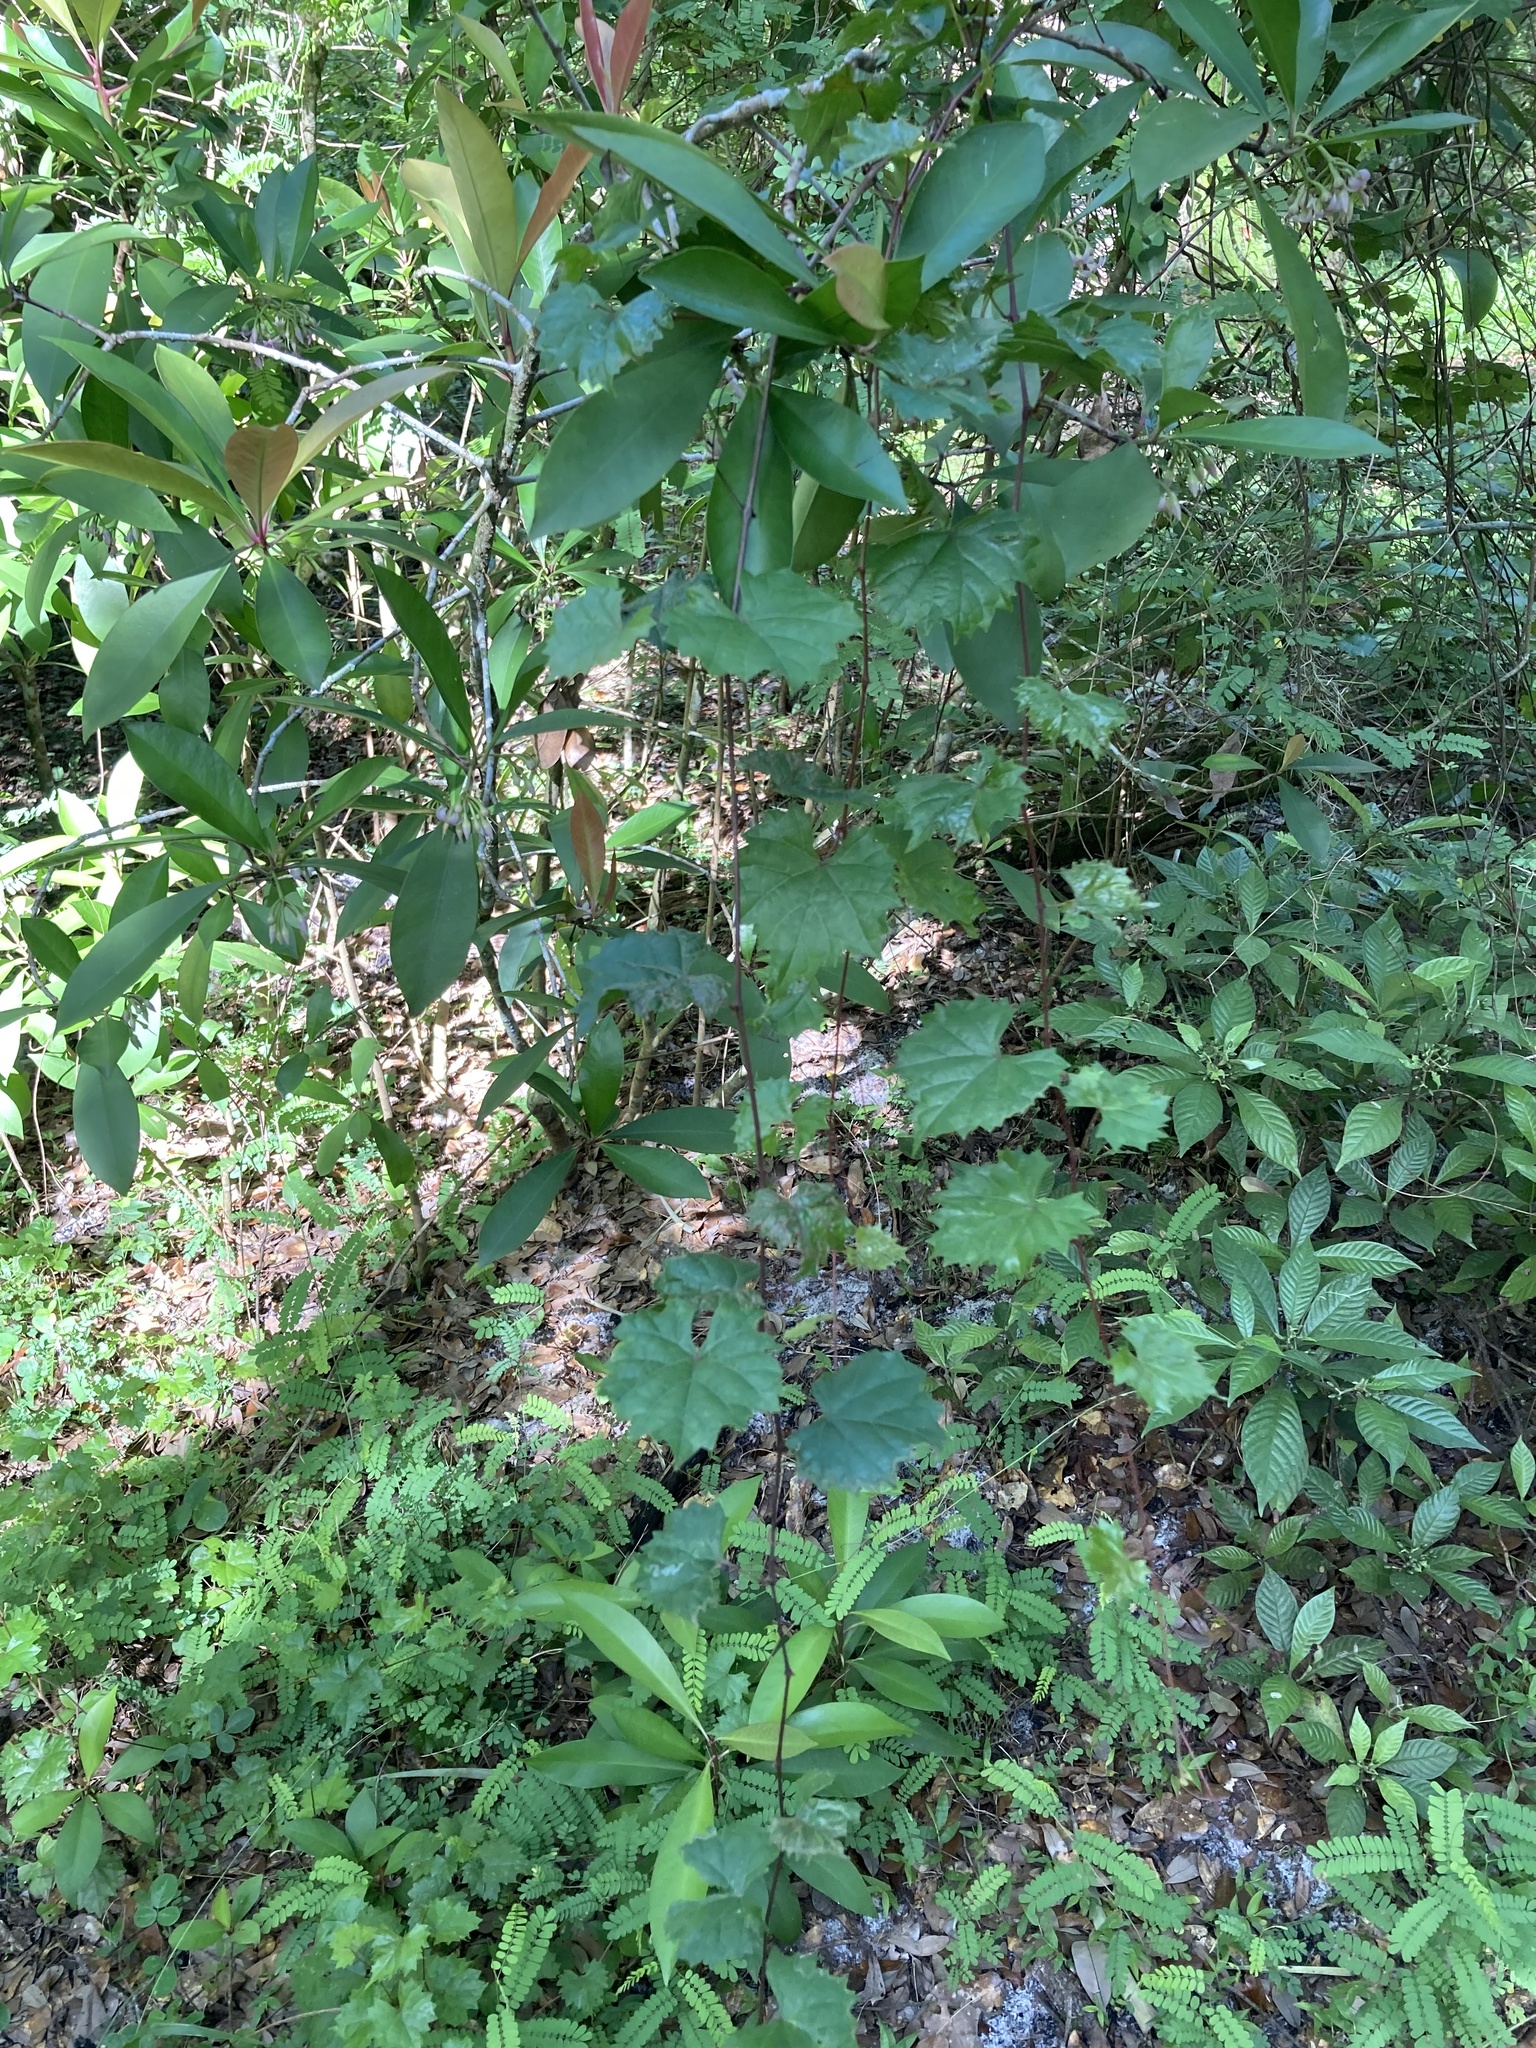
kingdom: Plantae
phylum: Tracheophyta
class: Magnoliopsida
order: Vitales
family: Vitaceae
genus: Vitis
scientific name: Vitis rotundifolia
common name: Muscadine grape
